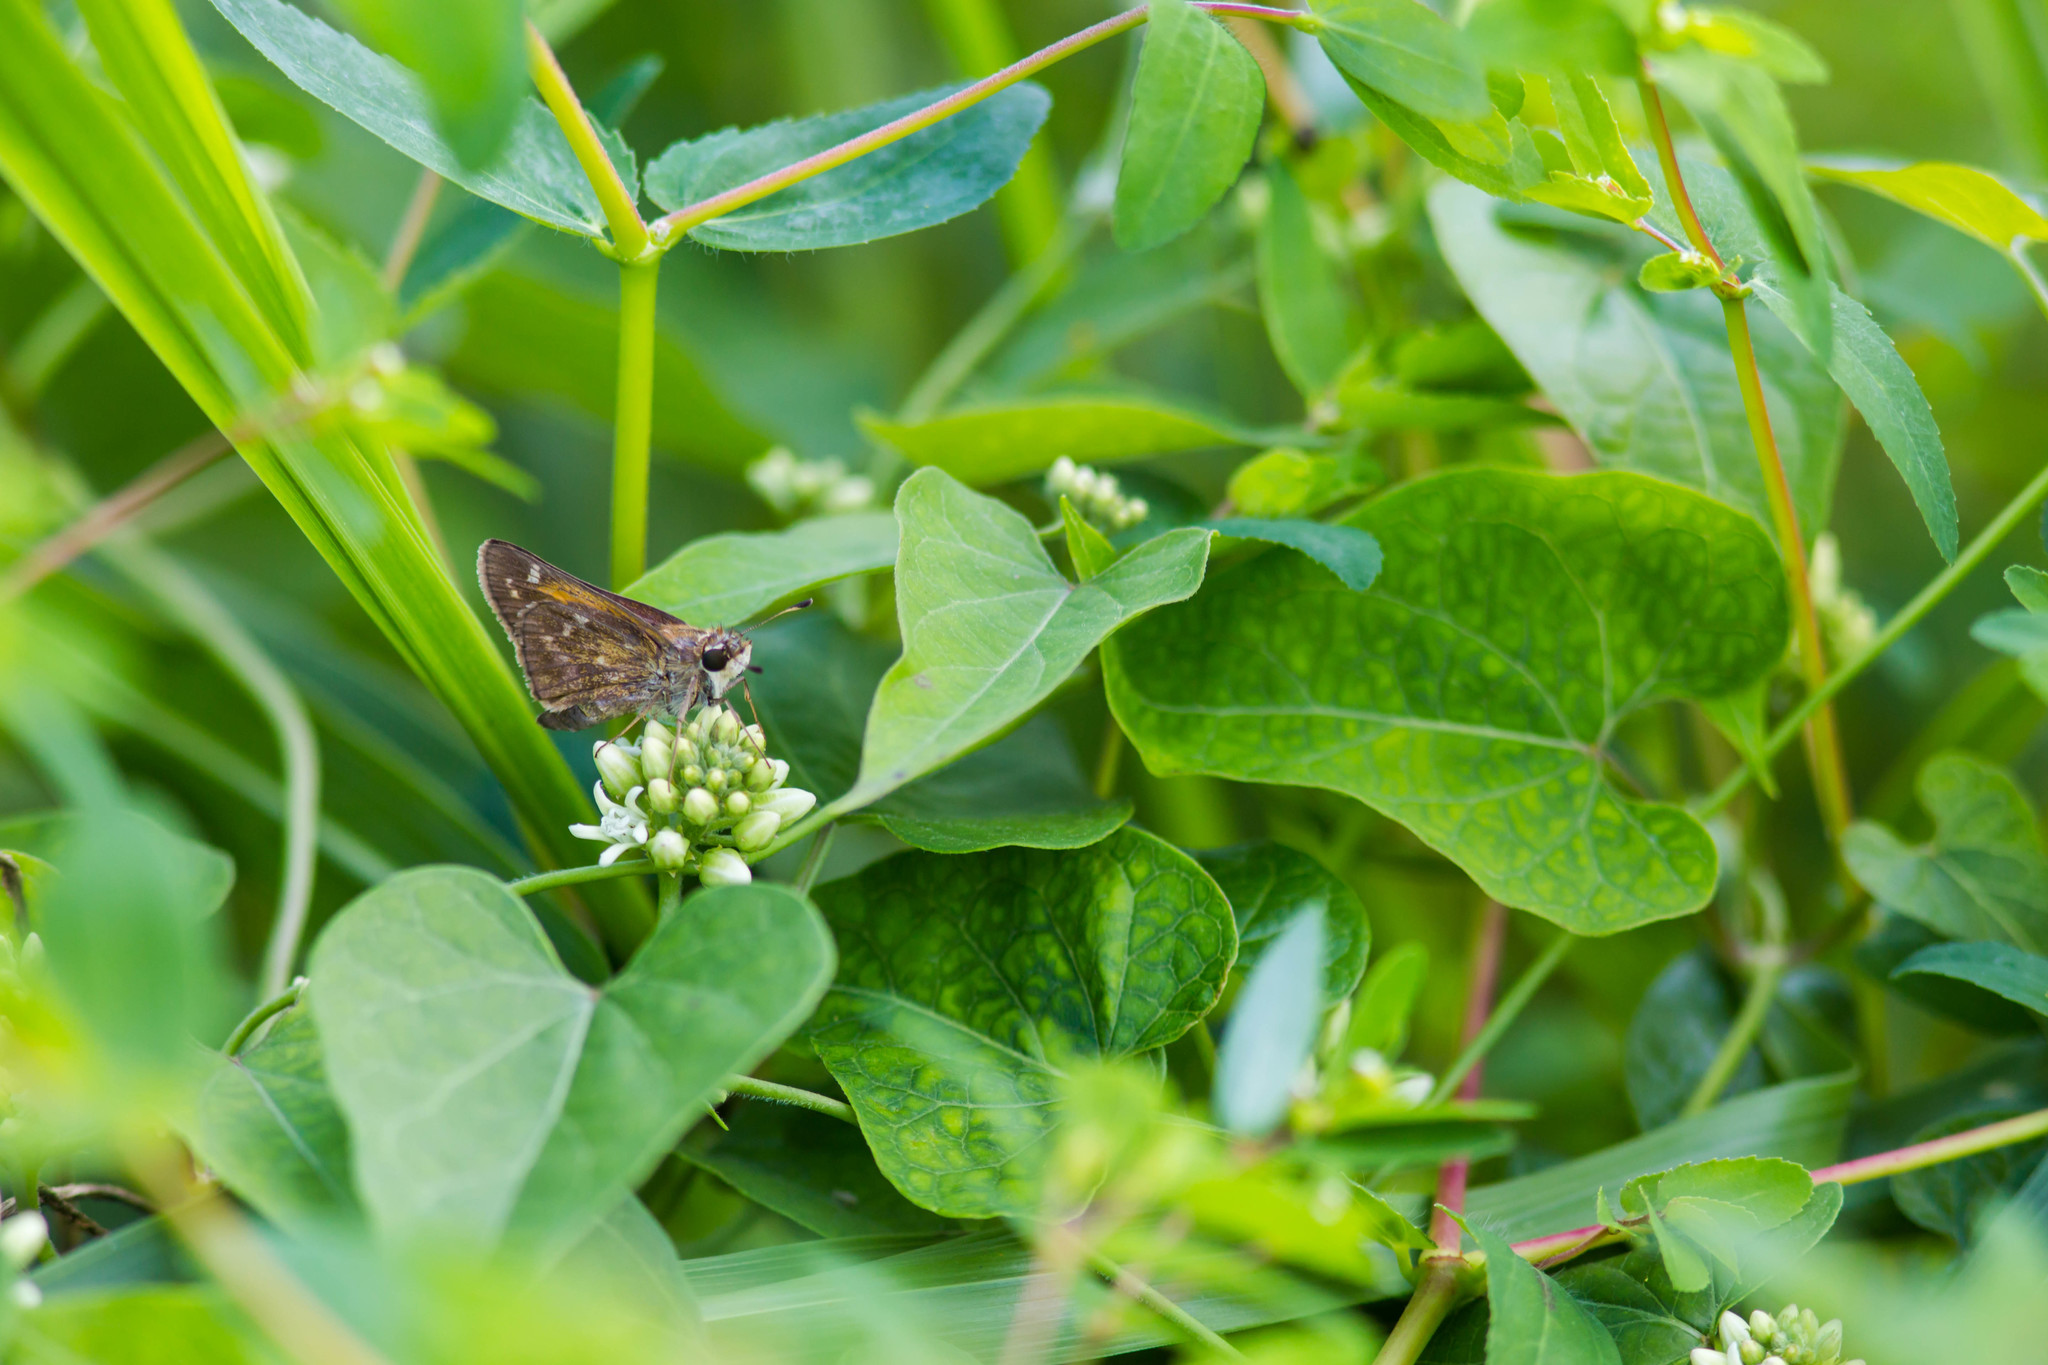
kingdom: Animalia
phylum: Arthropoda
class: Insecta
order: Lepidoptera
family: Hesperiidae
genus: Atalopedes
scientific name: Atalopedes
